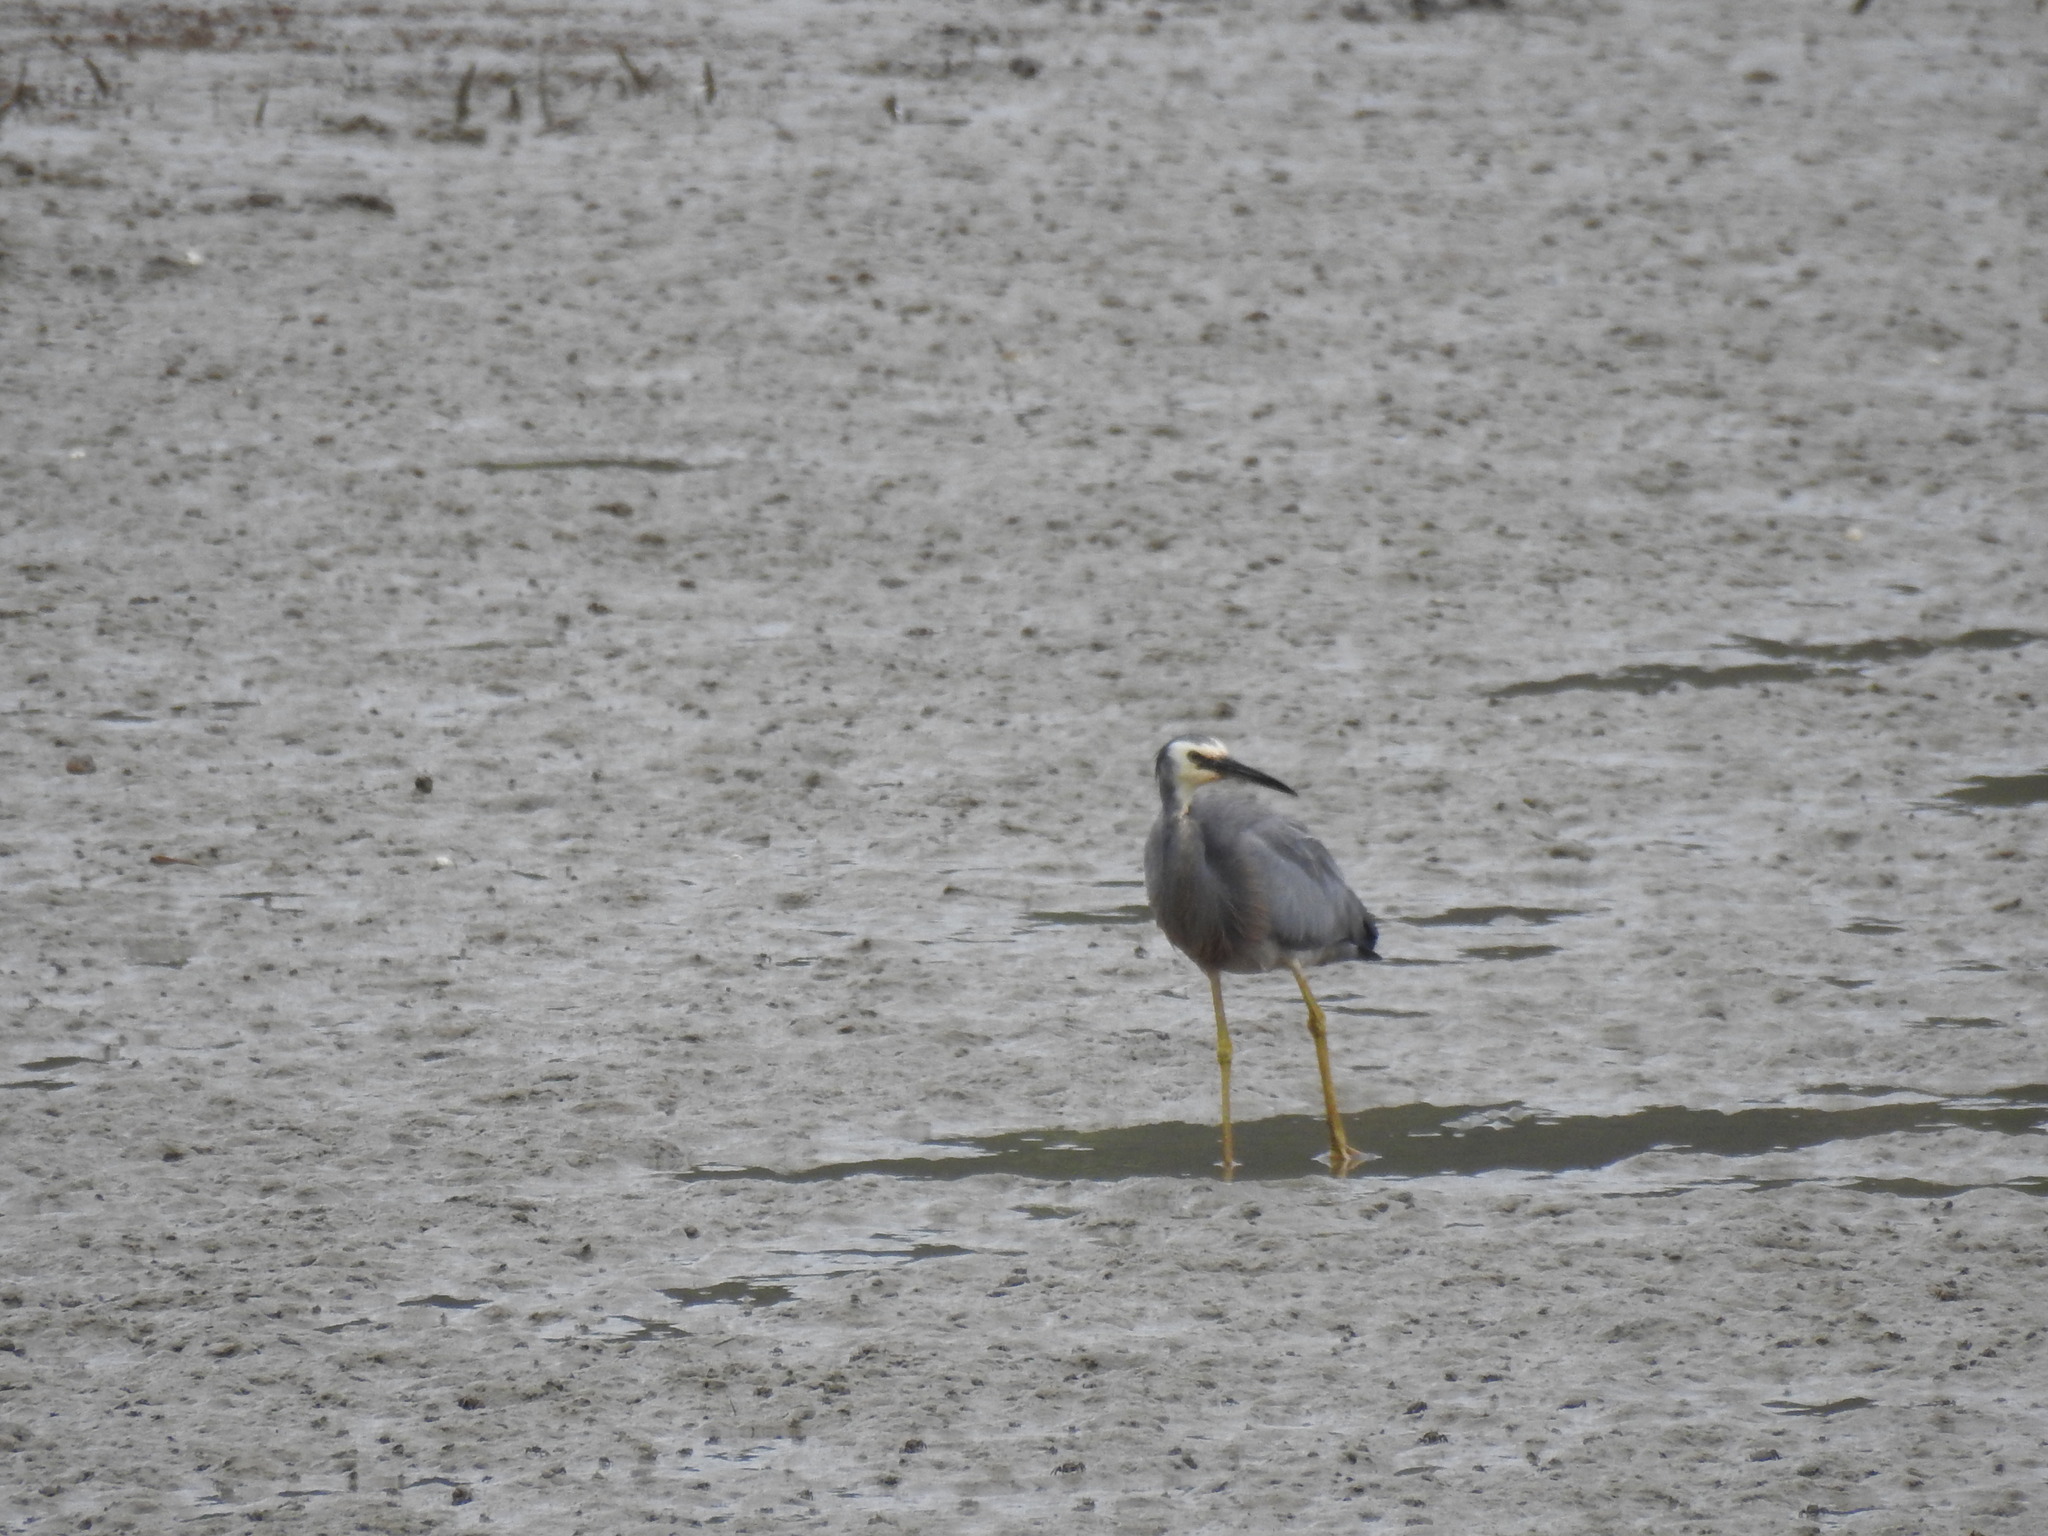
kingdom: Animalia
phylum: Chordata
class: Aves
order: Pelecaniformes
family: Ardeidae
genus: Egretta
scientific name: Egretta novaehollandiae
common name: White-faced heron
